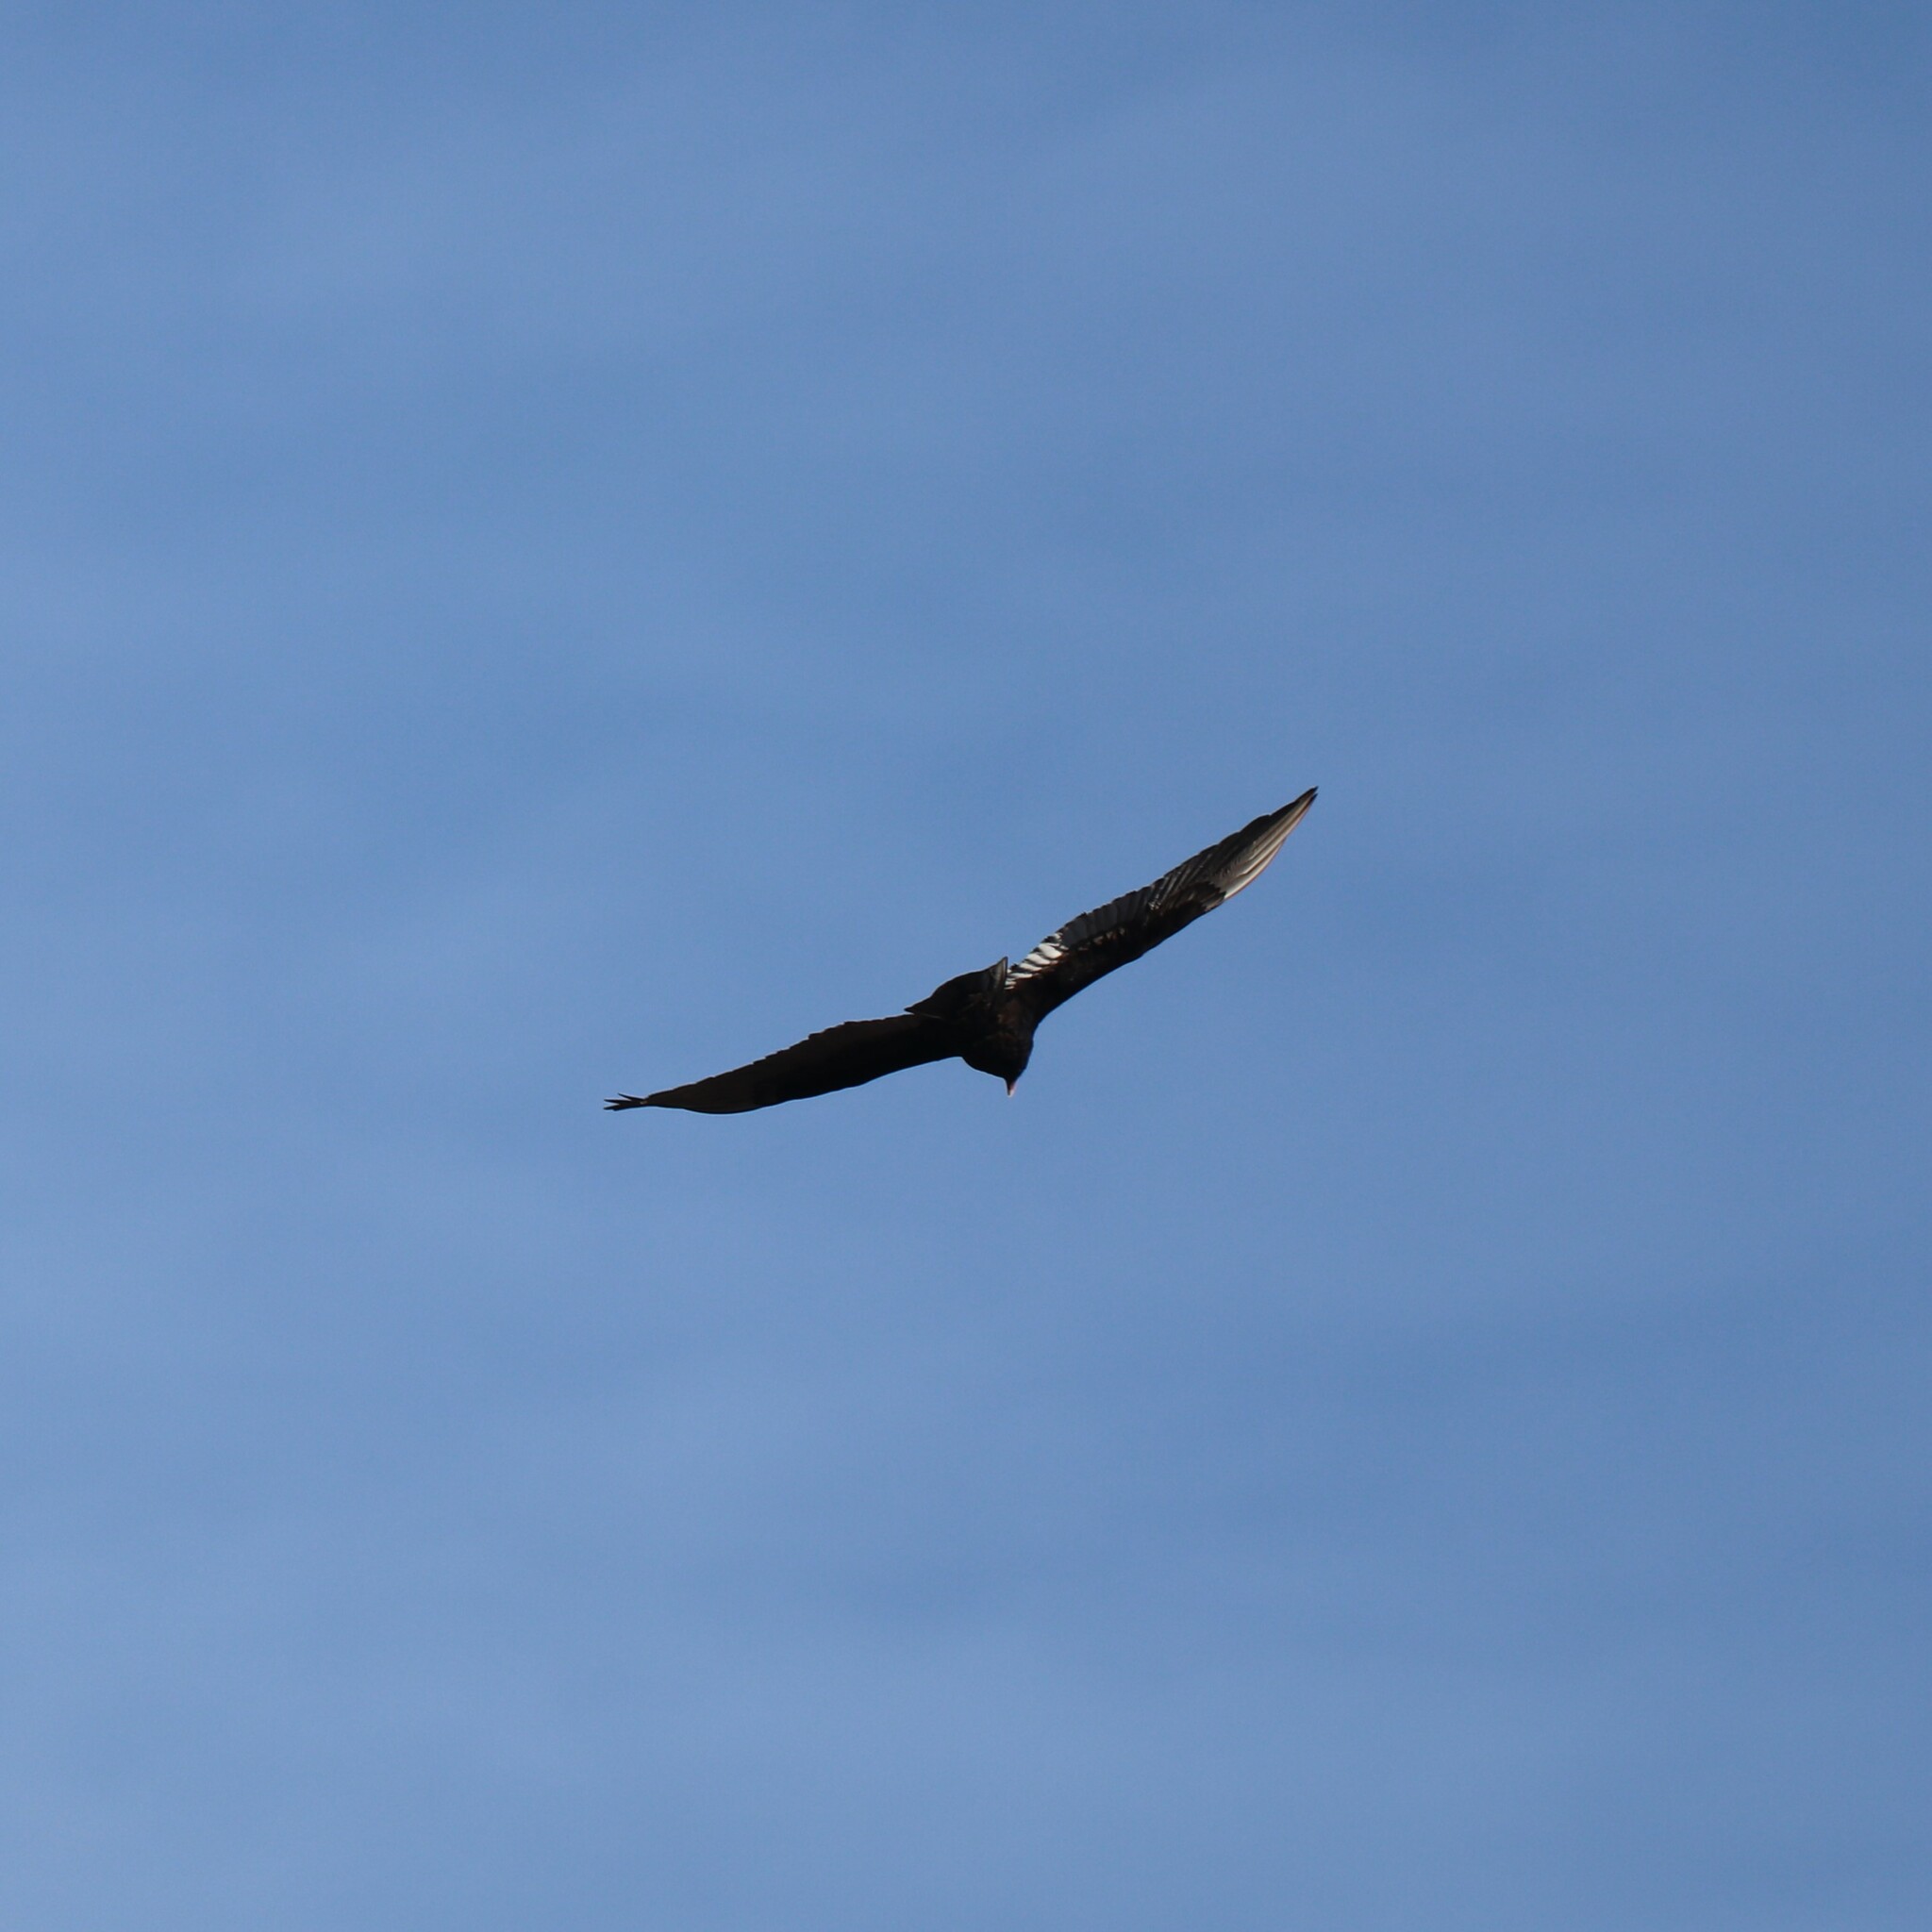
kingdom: Animalia
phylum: Chordata
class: Aves
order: Accipitriformes
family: Cathartidae
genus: Cathartes
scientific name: Cathartes aura
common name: Turkey vulture
